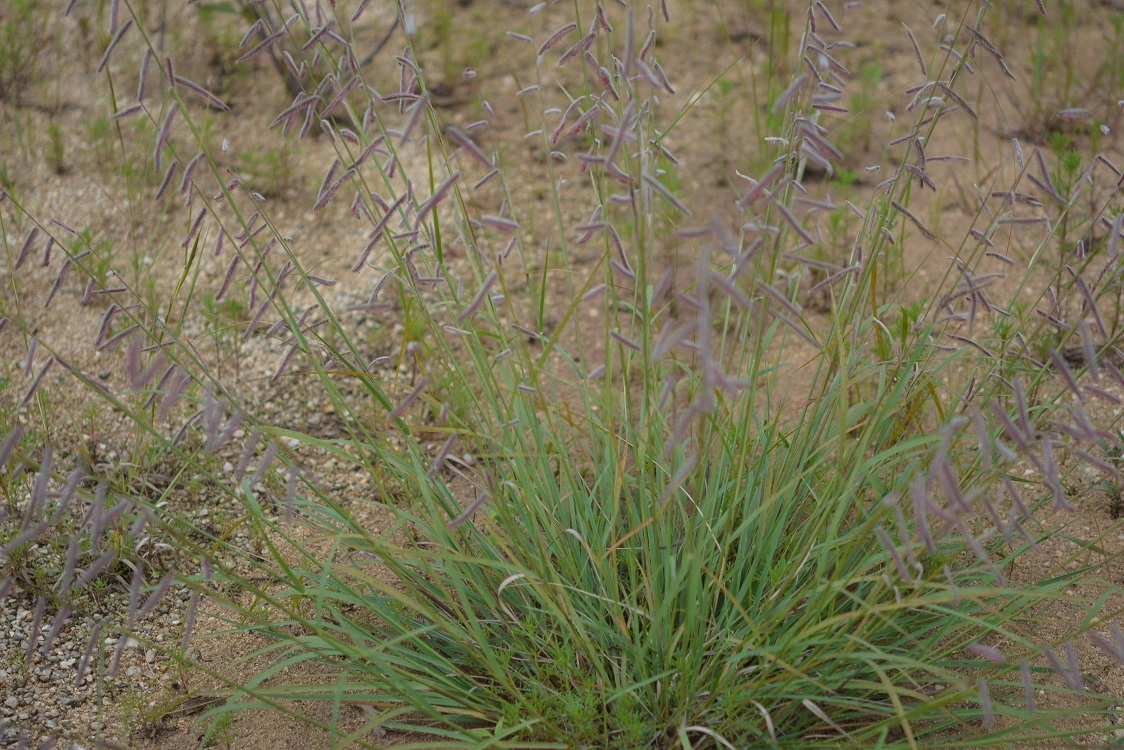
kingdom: Plantae
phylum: Tracheophyta
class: Liliopsida
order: Poales
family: Poaceae
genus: Bouteloua
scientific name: Bouteloua elata
